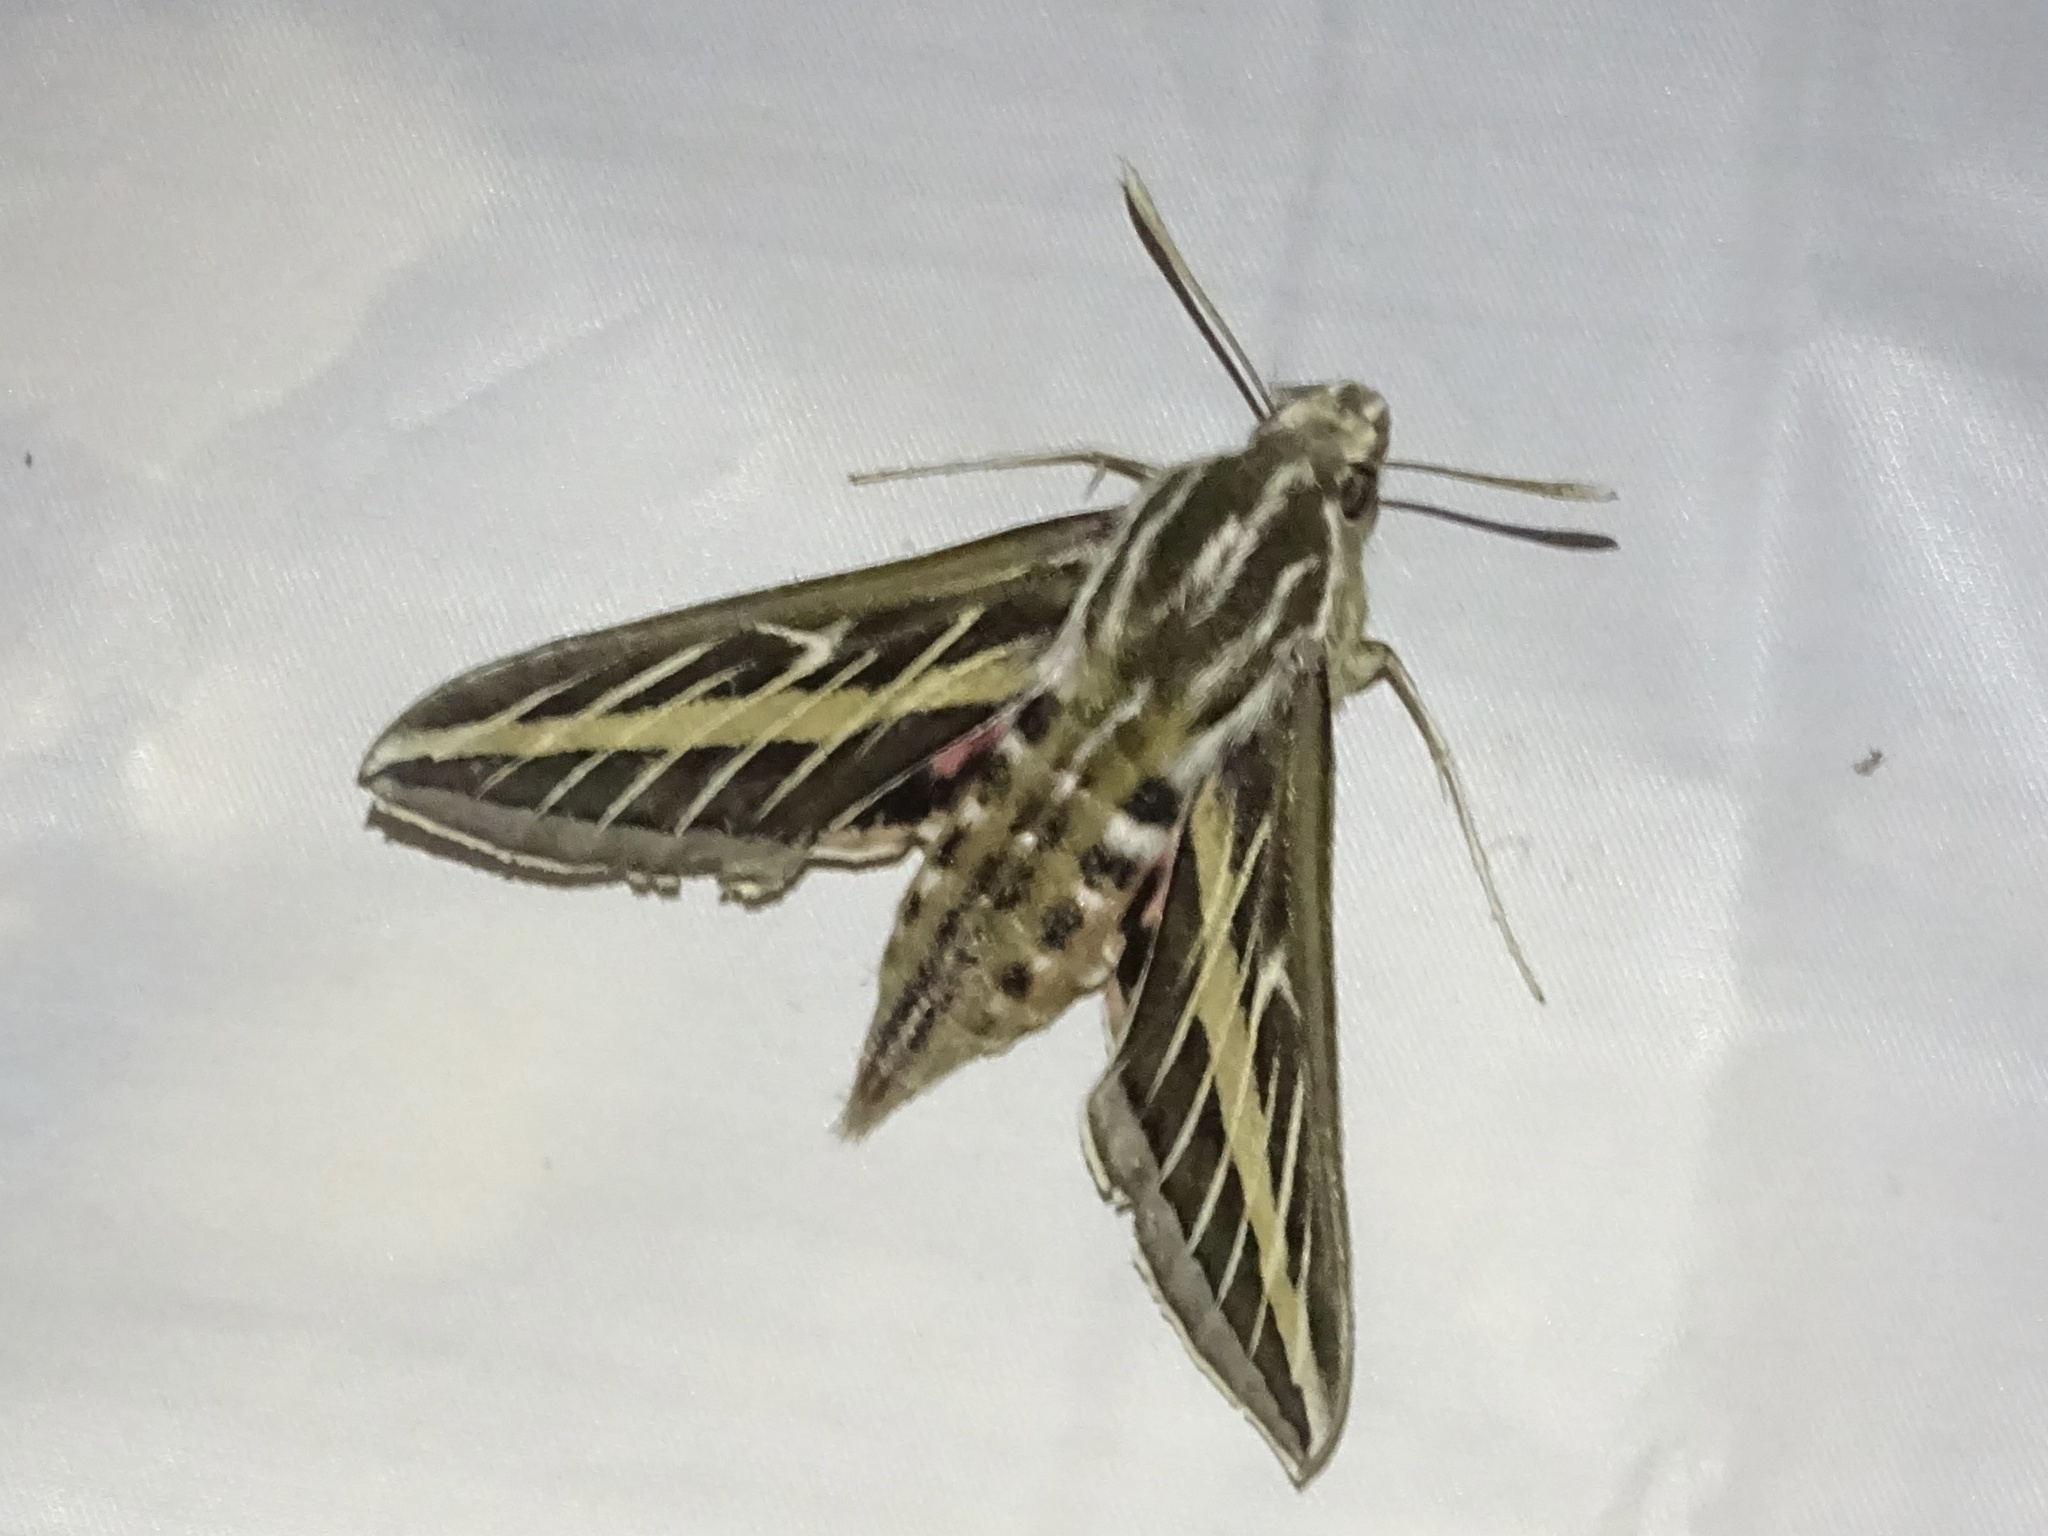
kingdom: Animalia
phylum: Arthropoda
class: Insecta
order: Lepidoptera
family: Sphingidae
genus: Hyles
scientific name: Hyles lineata
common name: White-lined sphinx
